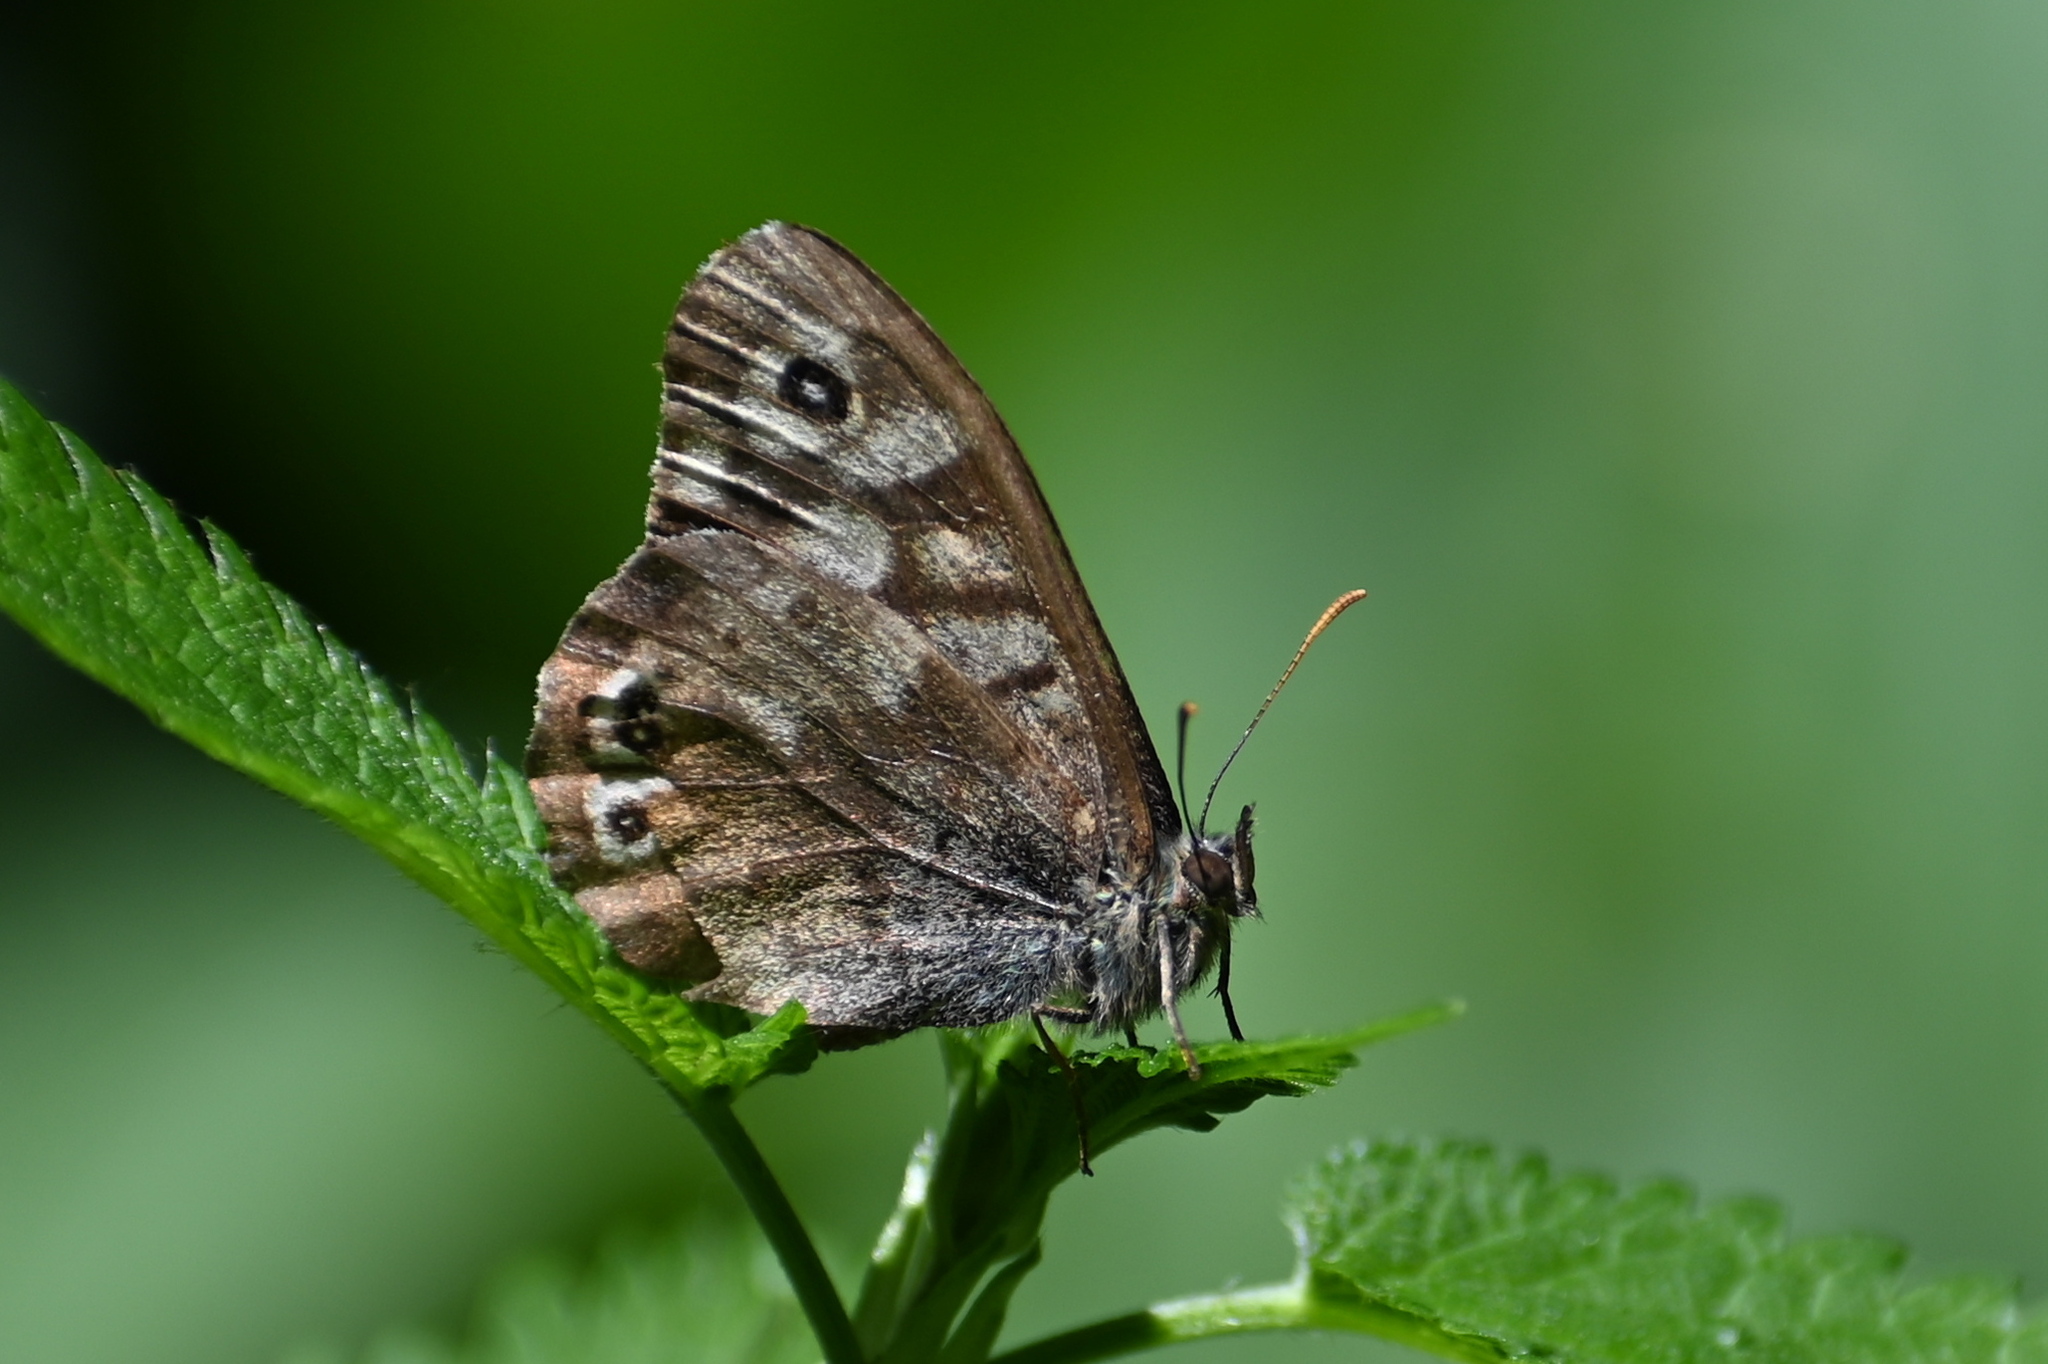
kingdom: Animalia
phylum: Arthropoda
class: Insecta
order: Lepidoptera
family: Nymphalidae
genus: Pararge
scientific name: Pararge aegeria
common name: Speckled wood
